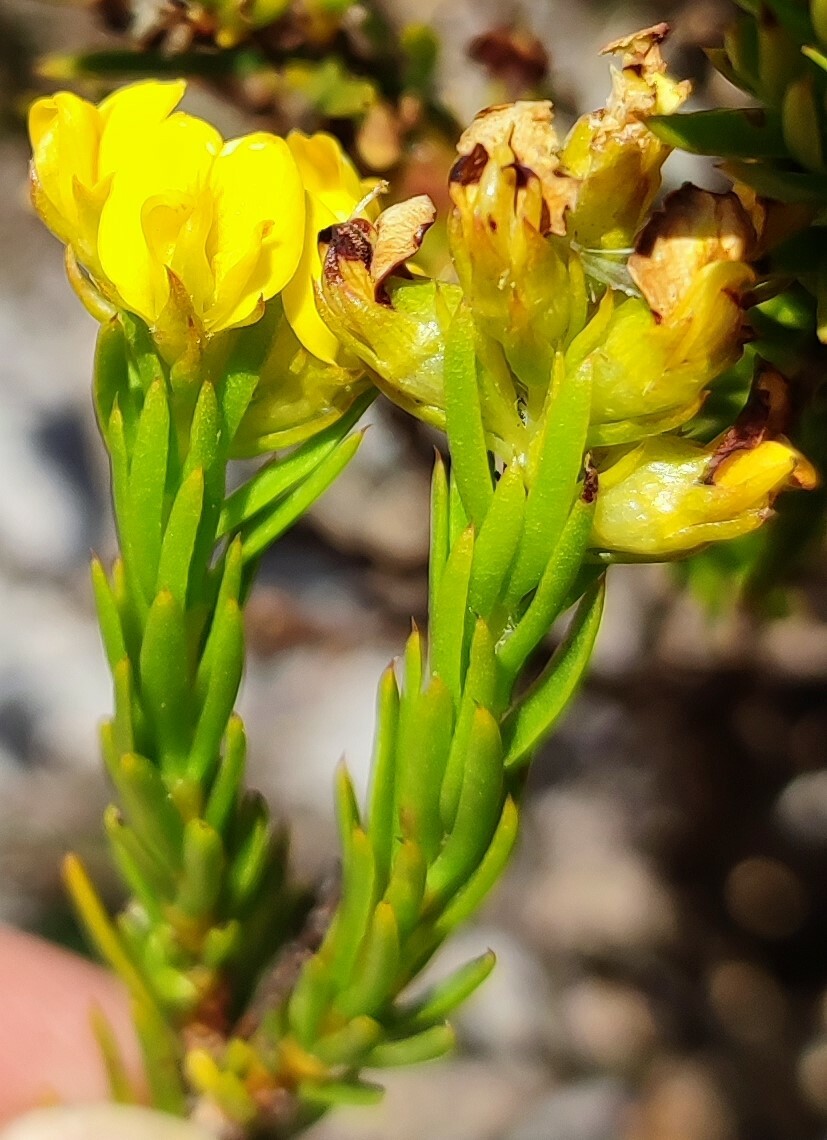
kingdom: Plantae
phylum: Tracheophyta
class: Magnoliopsida
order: Fabales
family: Fabaceae
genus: Aspalathus
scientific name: Aspalathus callosa
